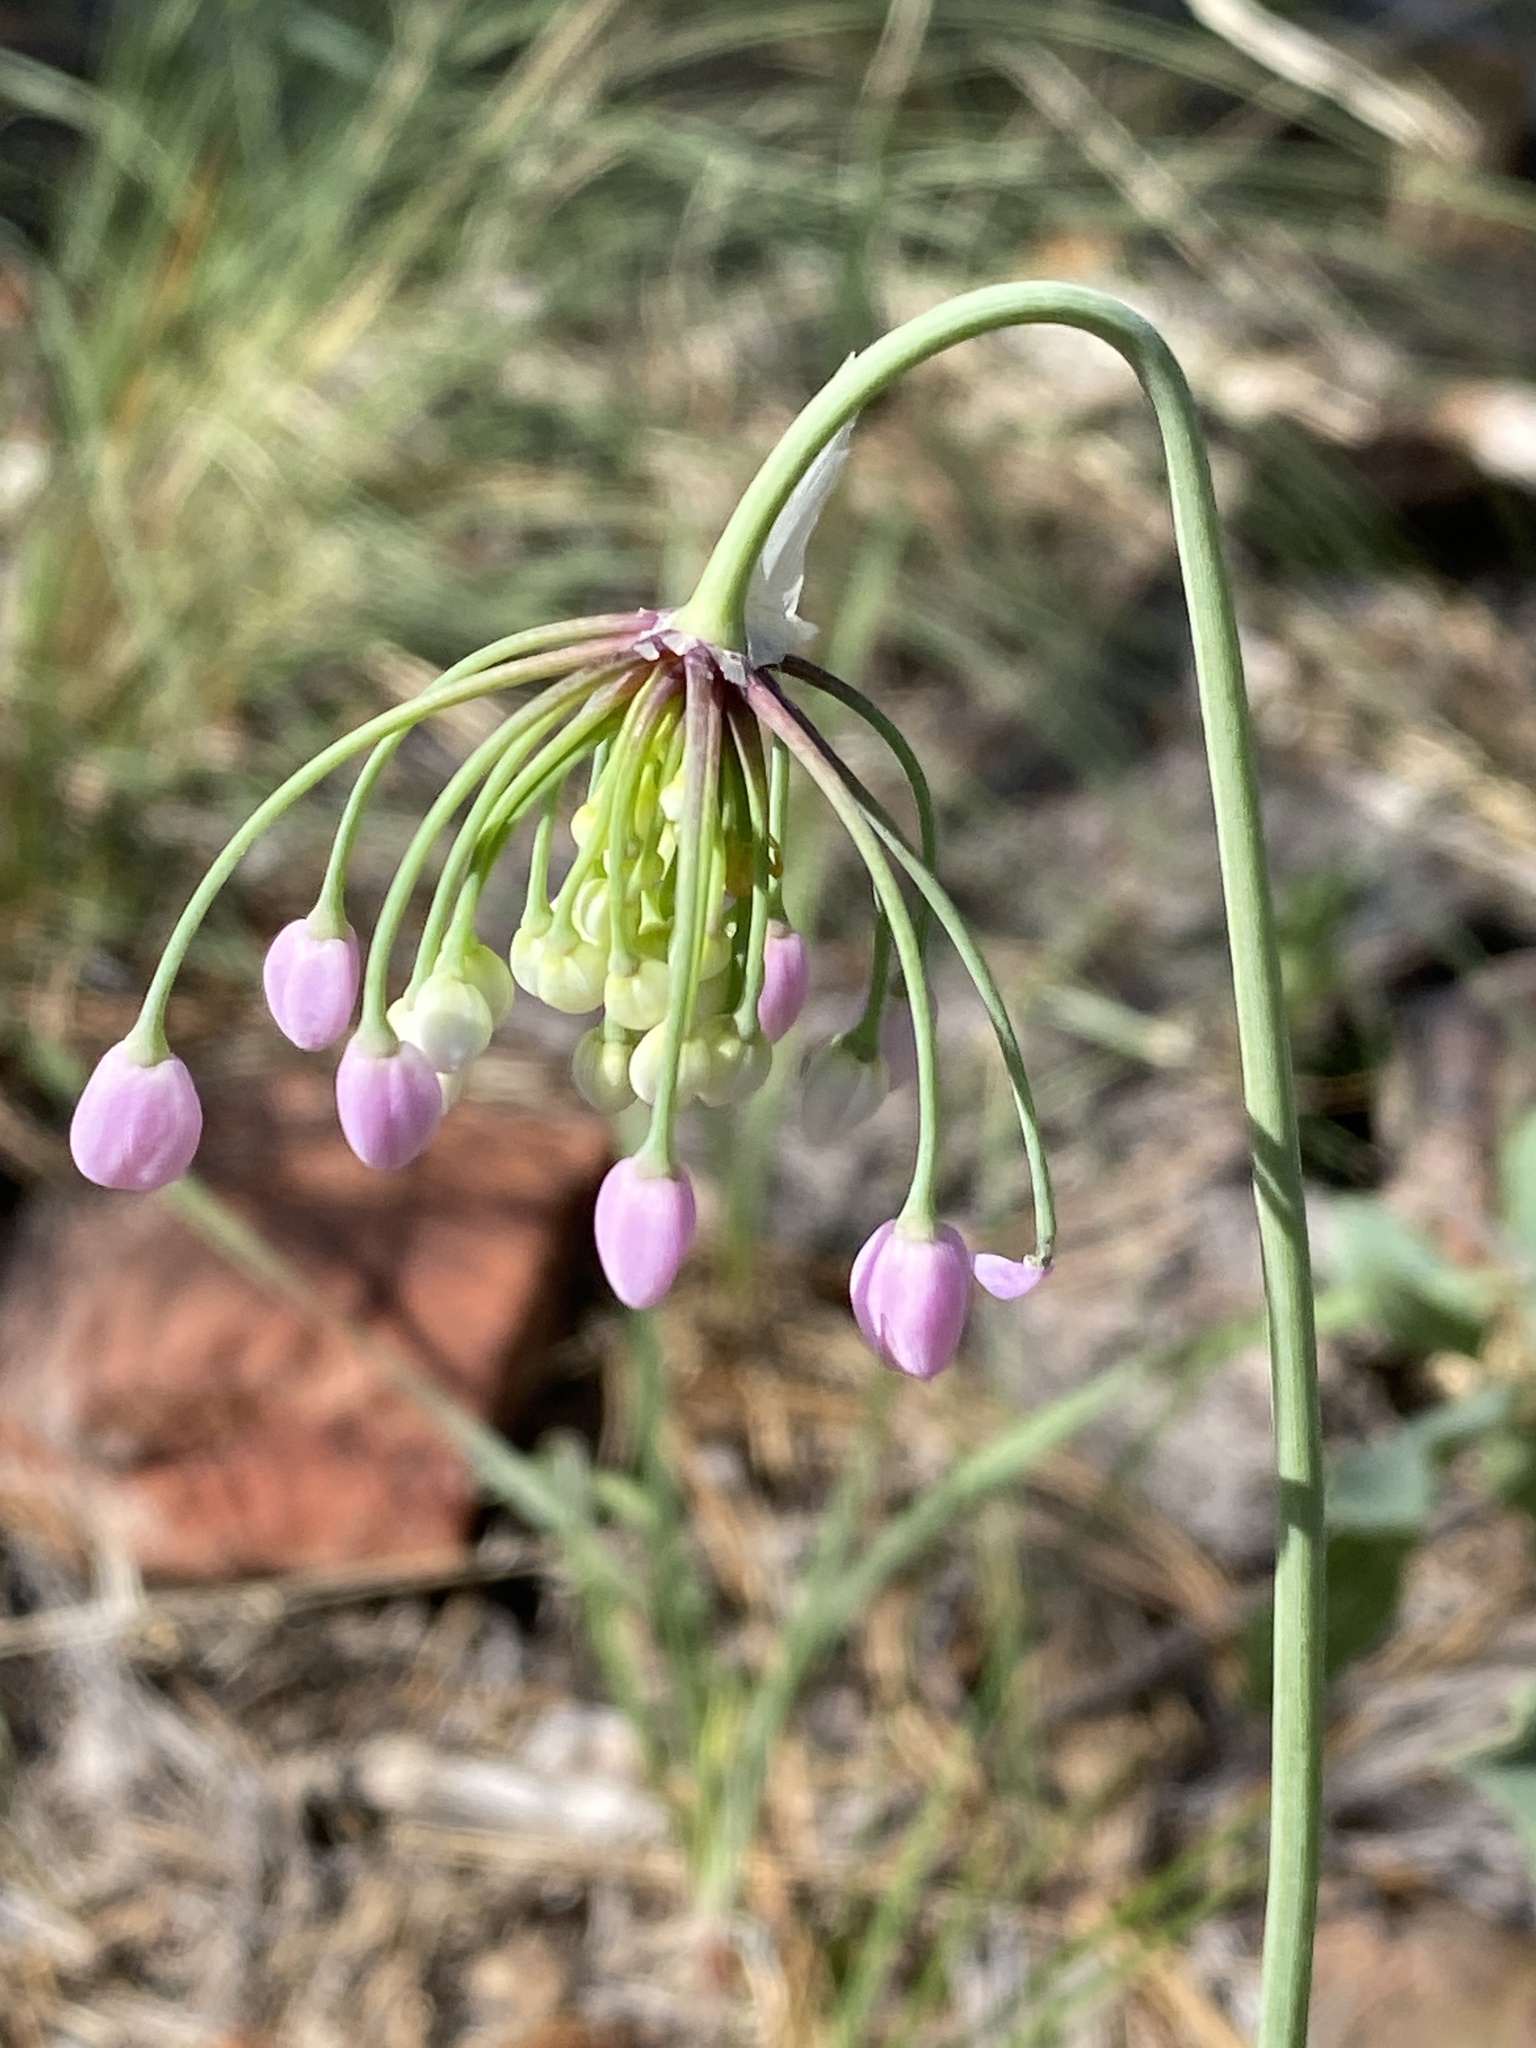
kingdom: Plantae
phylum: Tracheophyta
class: Liliopsida
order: Asparagales
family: Amaryllidaceae
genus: Allium
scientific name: Allium cernuum
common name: Nodding onion
